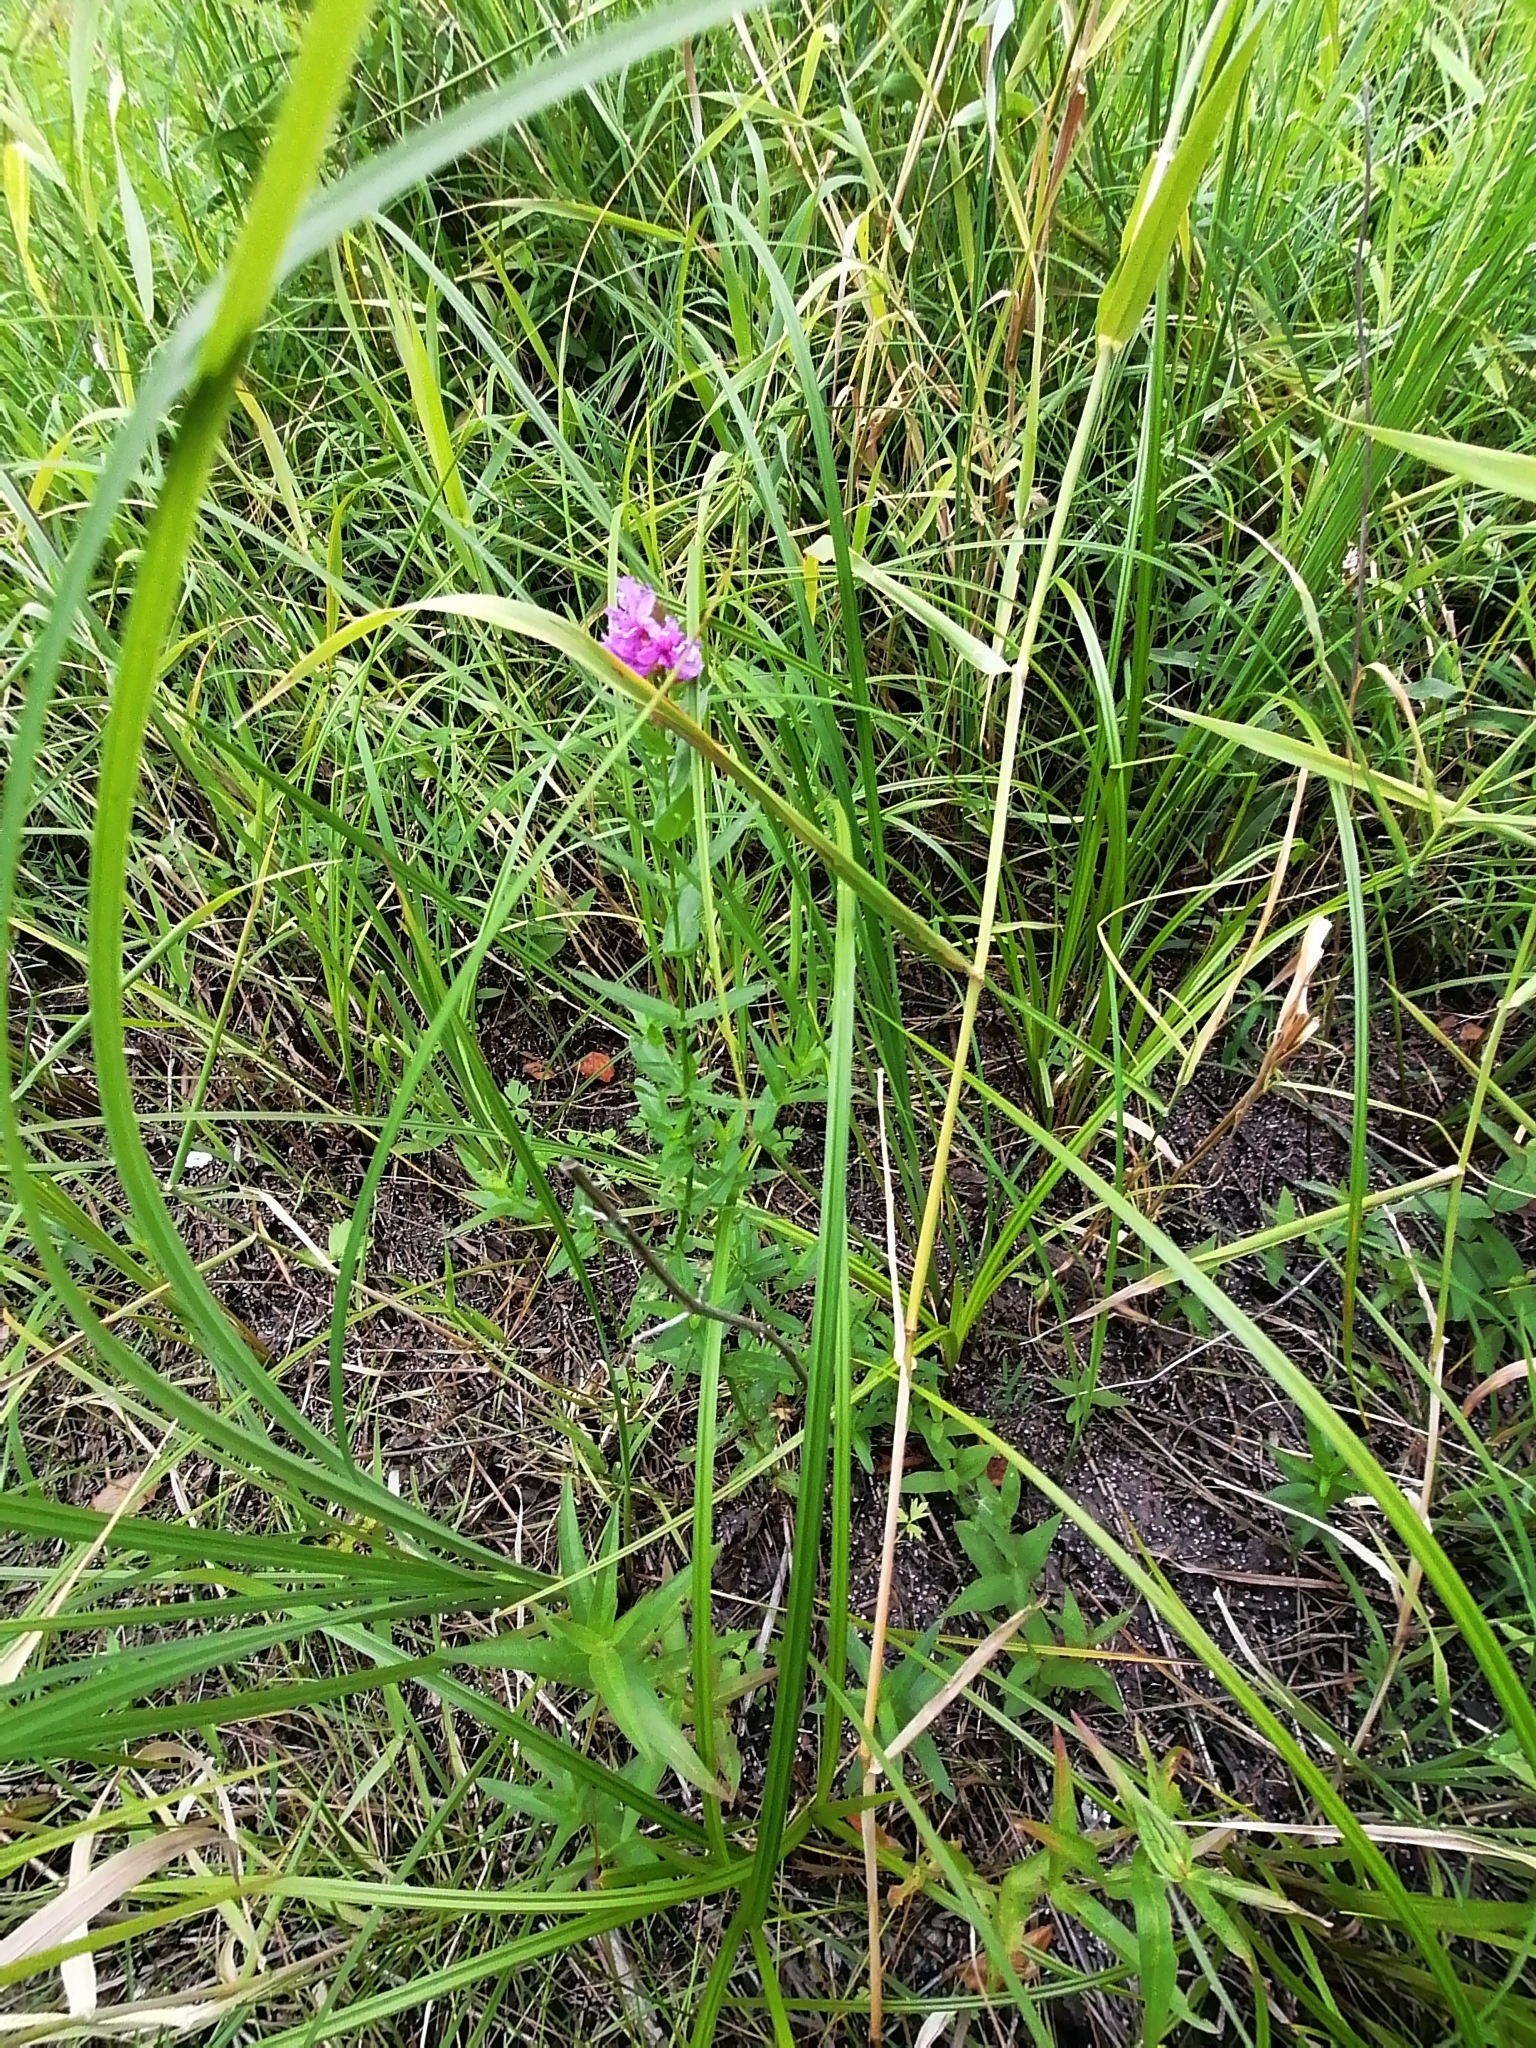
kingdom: Plantae
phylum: Tracheophyta
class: Magnoliopsida
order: Myrtales
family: Lythraceae
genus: Lythrum
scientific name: Lythrum salicaria
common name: Purple loosestrife
